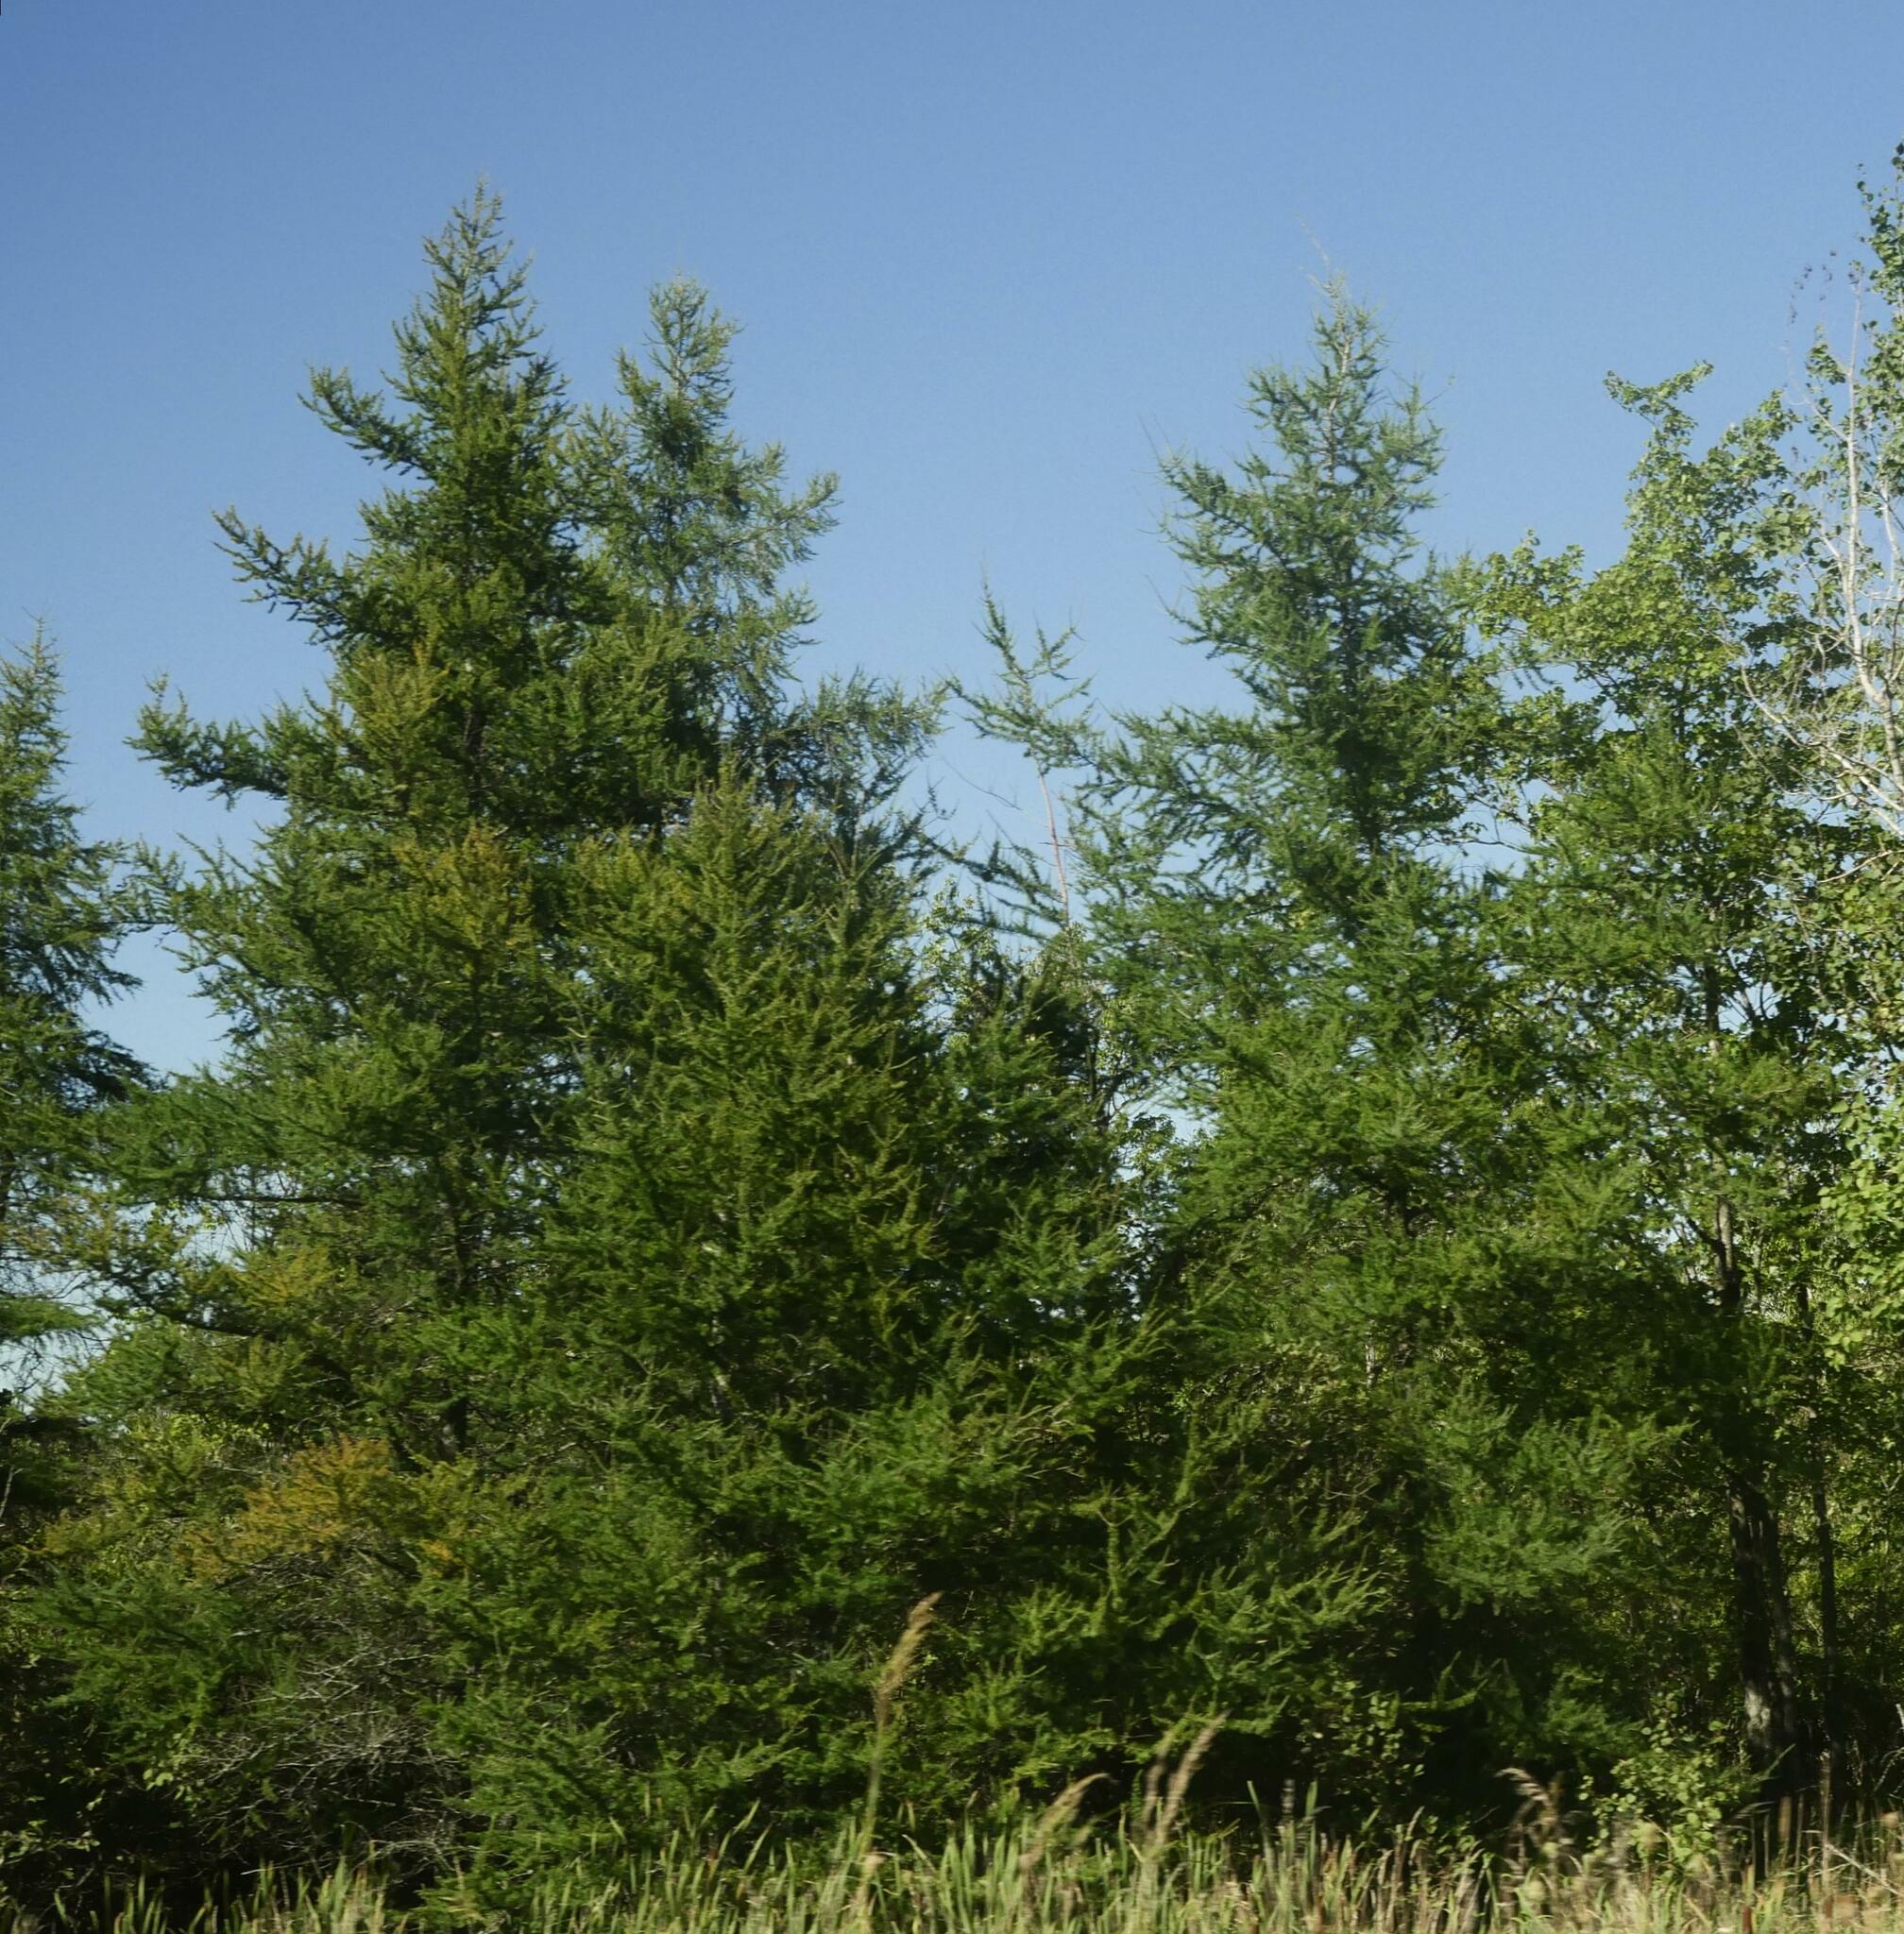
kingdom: Plantae
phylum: Tracheophyta
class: Pinopsida
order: Pinales
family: Pinaceae
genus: Larix
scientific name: Larix laricina
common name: American larch
